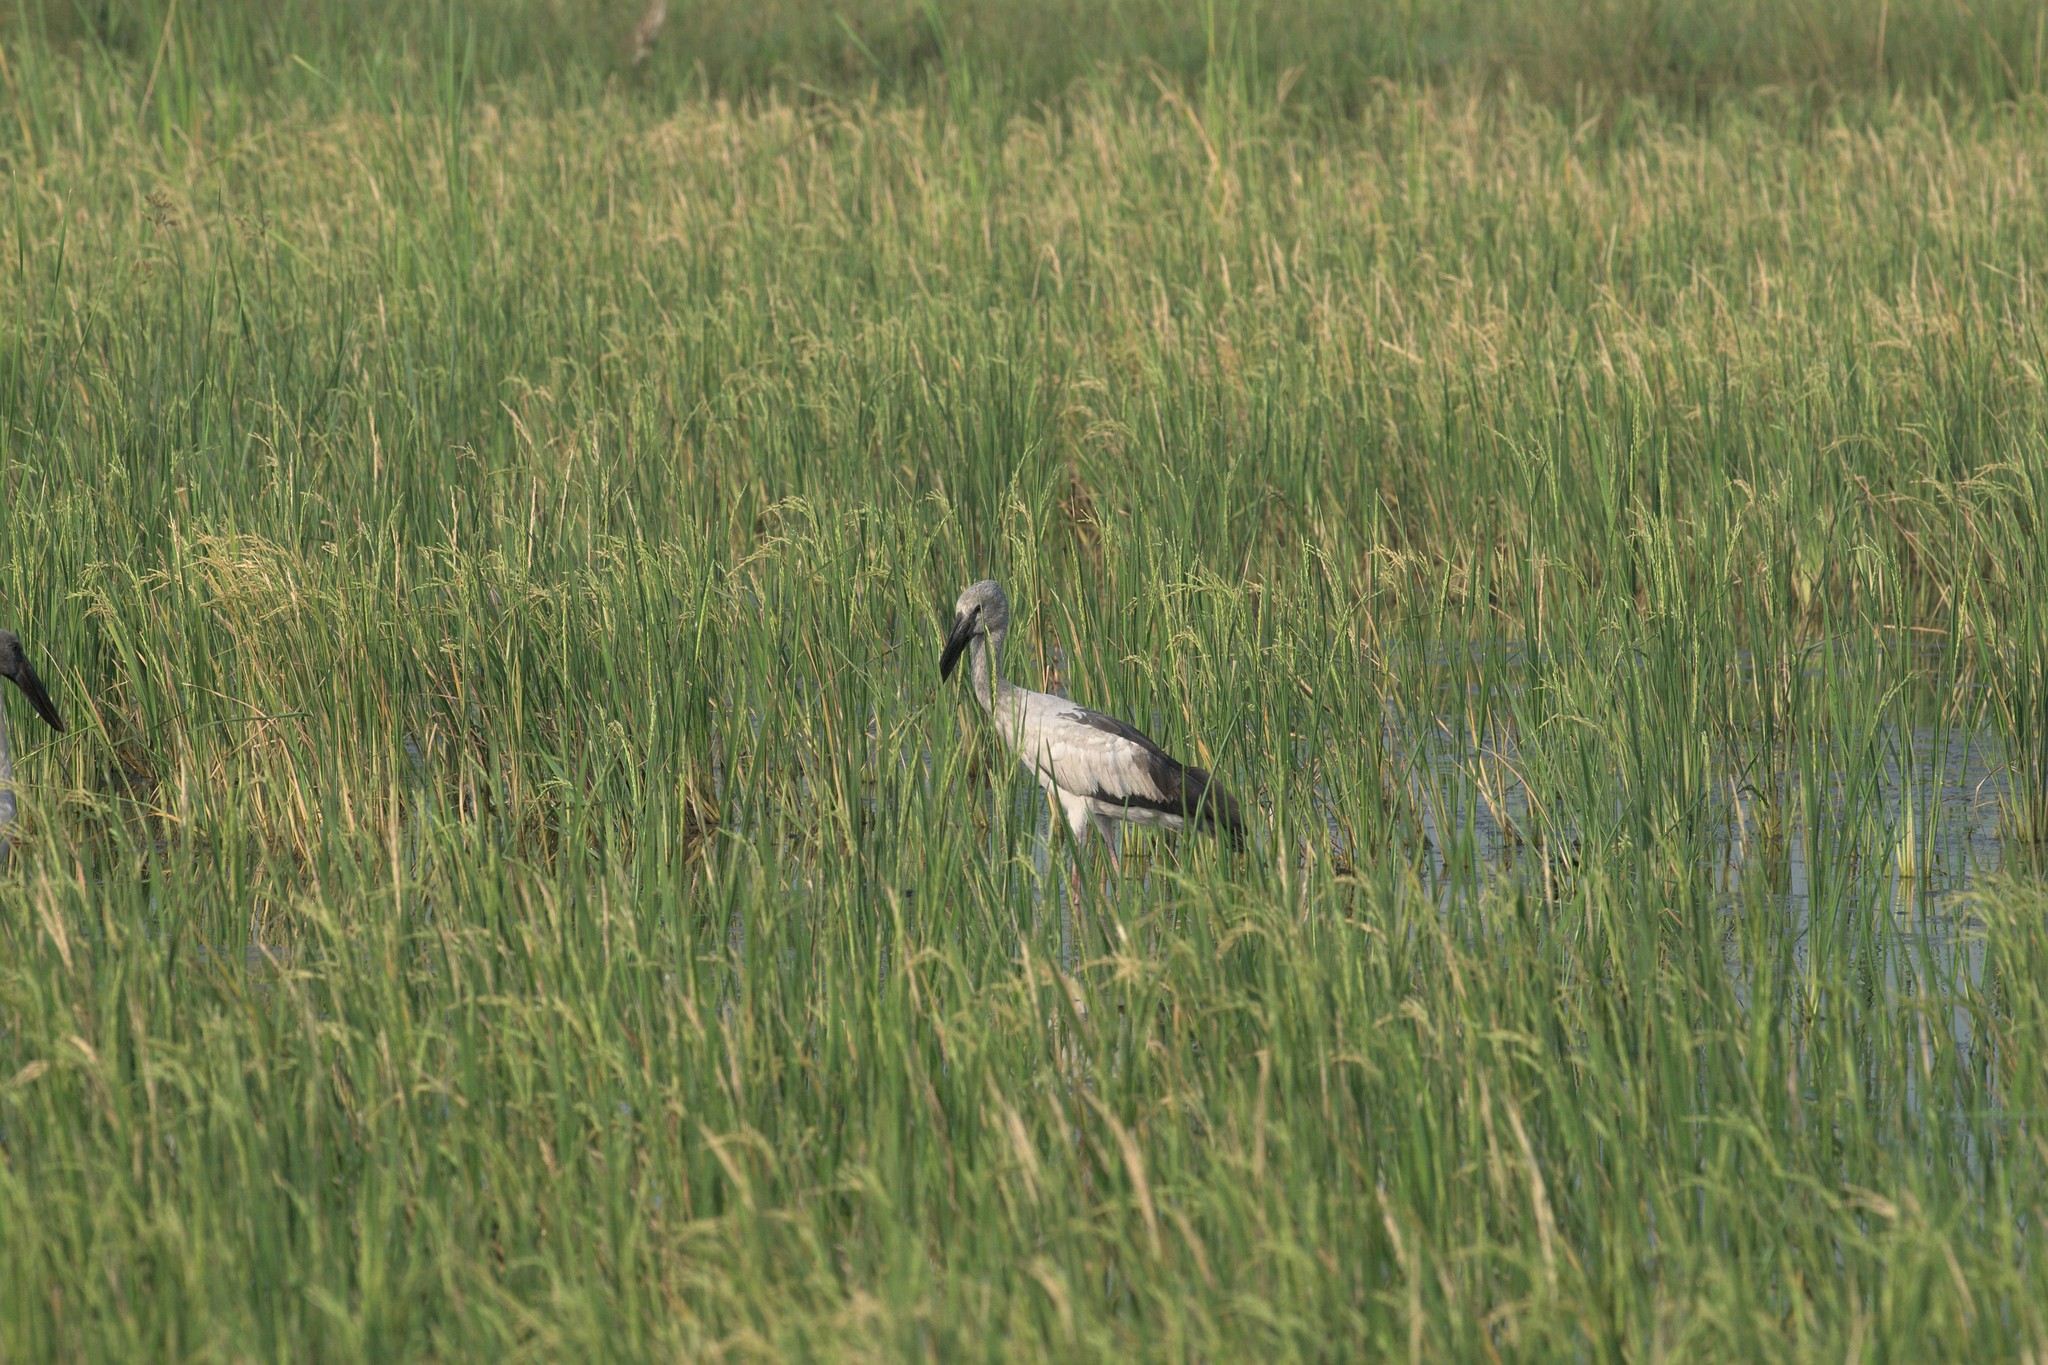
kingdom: Animalia
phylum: Chordata
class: Aves
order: Ciconiiformes
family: Ciconiidae
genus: Anastomus
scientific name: Anastomus oscitans
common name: Asian openbill
